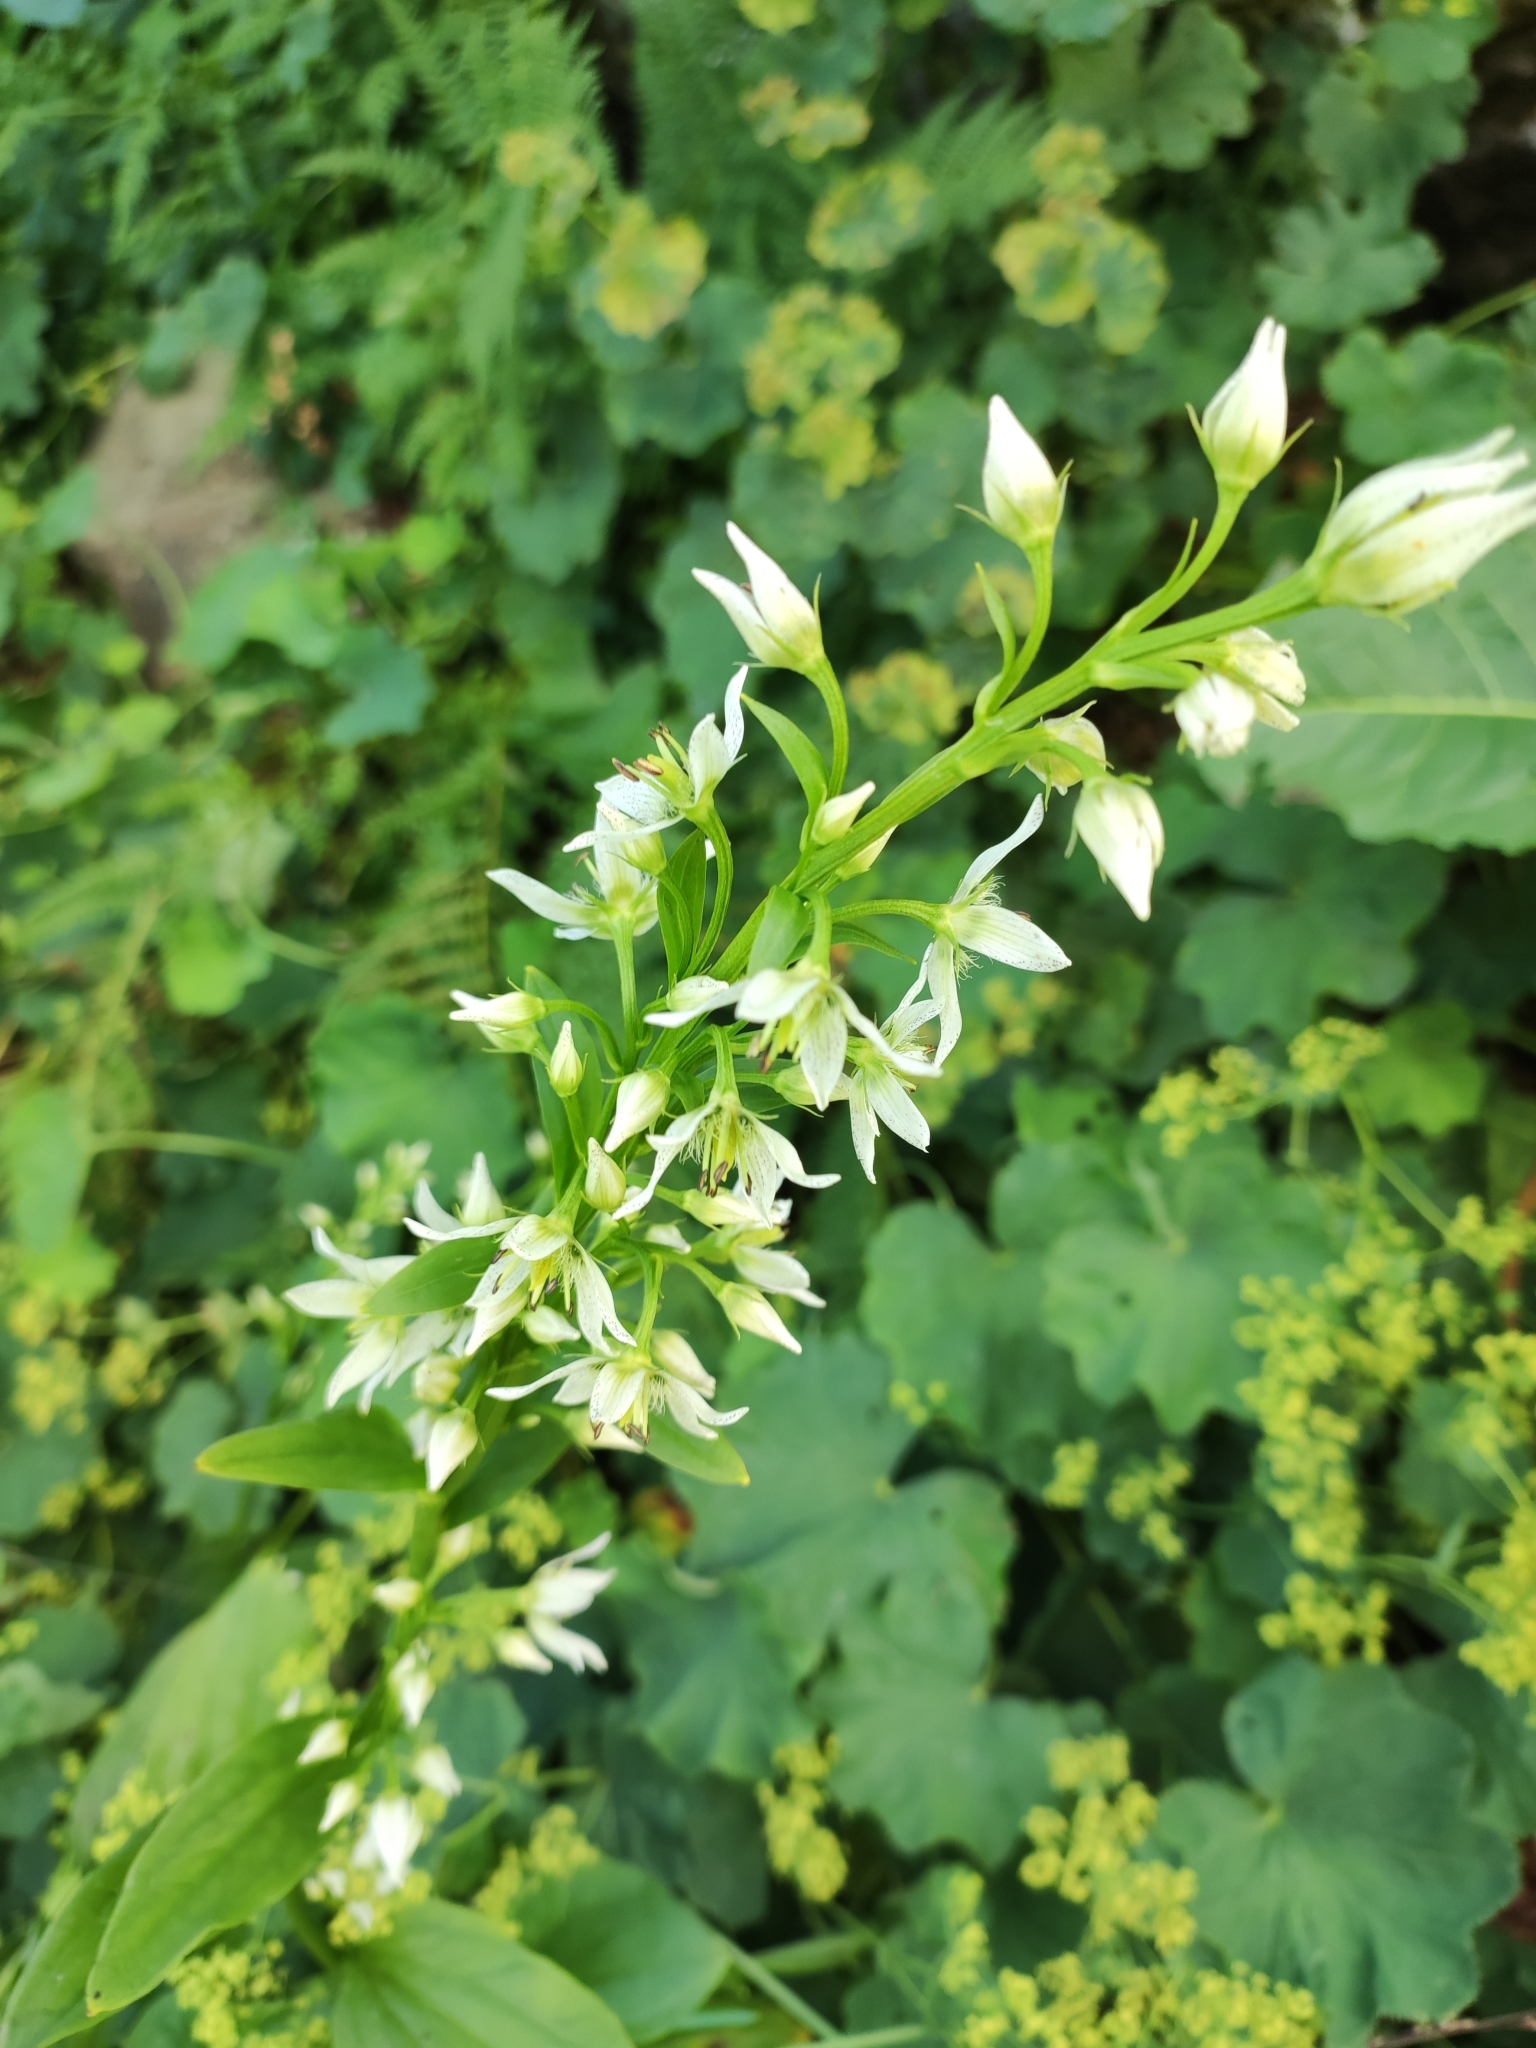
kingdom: Plantae
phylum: Tracheophyta
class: Magnoliopsida
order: Gentianales
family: Gentianaceae
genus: Swertia
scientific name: Swertia iberica
